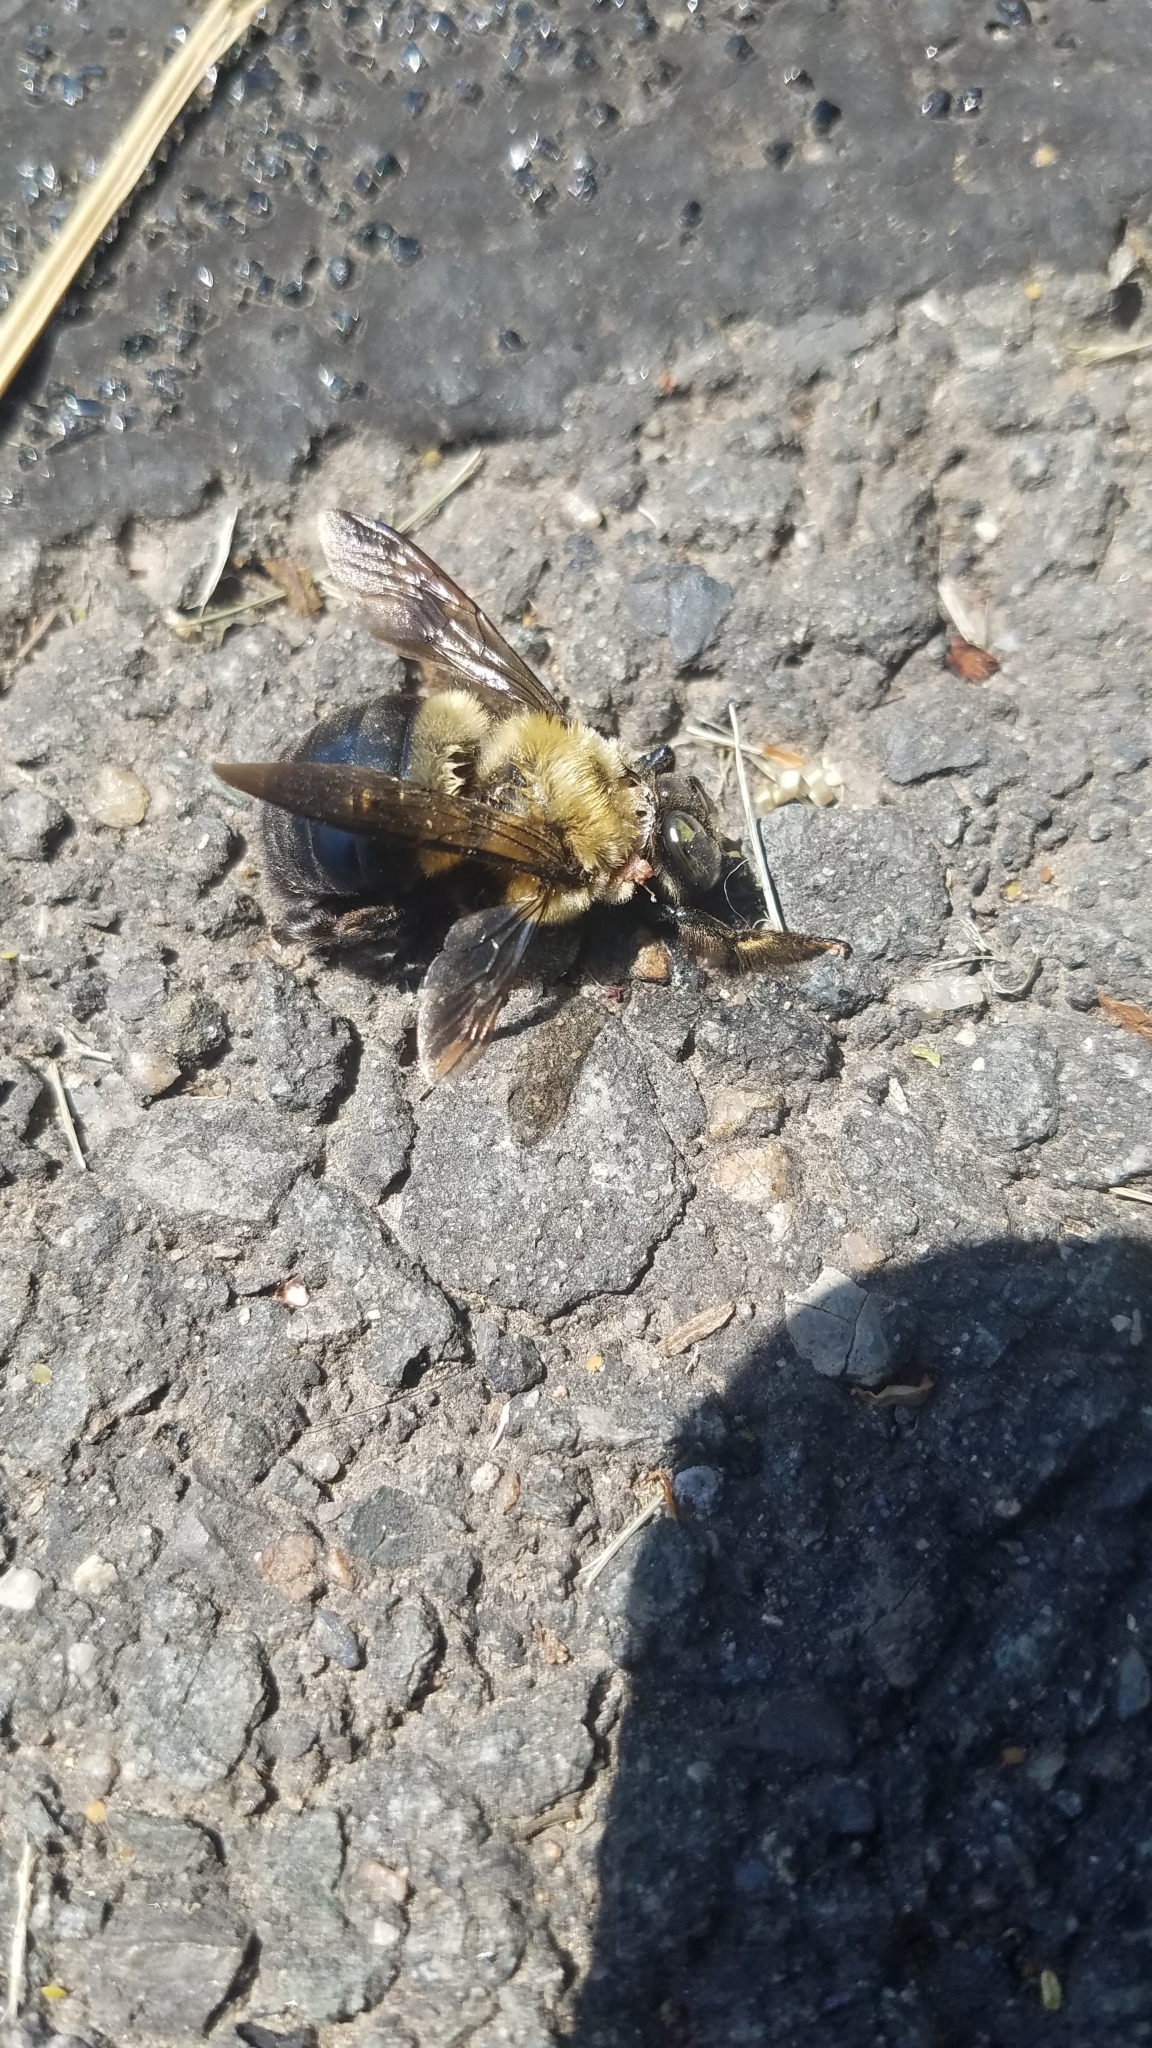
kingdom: Animalia
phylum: Arthropoda
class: Insecta
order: Hymenoptera
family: Apidae
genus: Xylocopa
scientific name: Xylocopa virginica
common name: Carpenter bee
